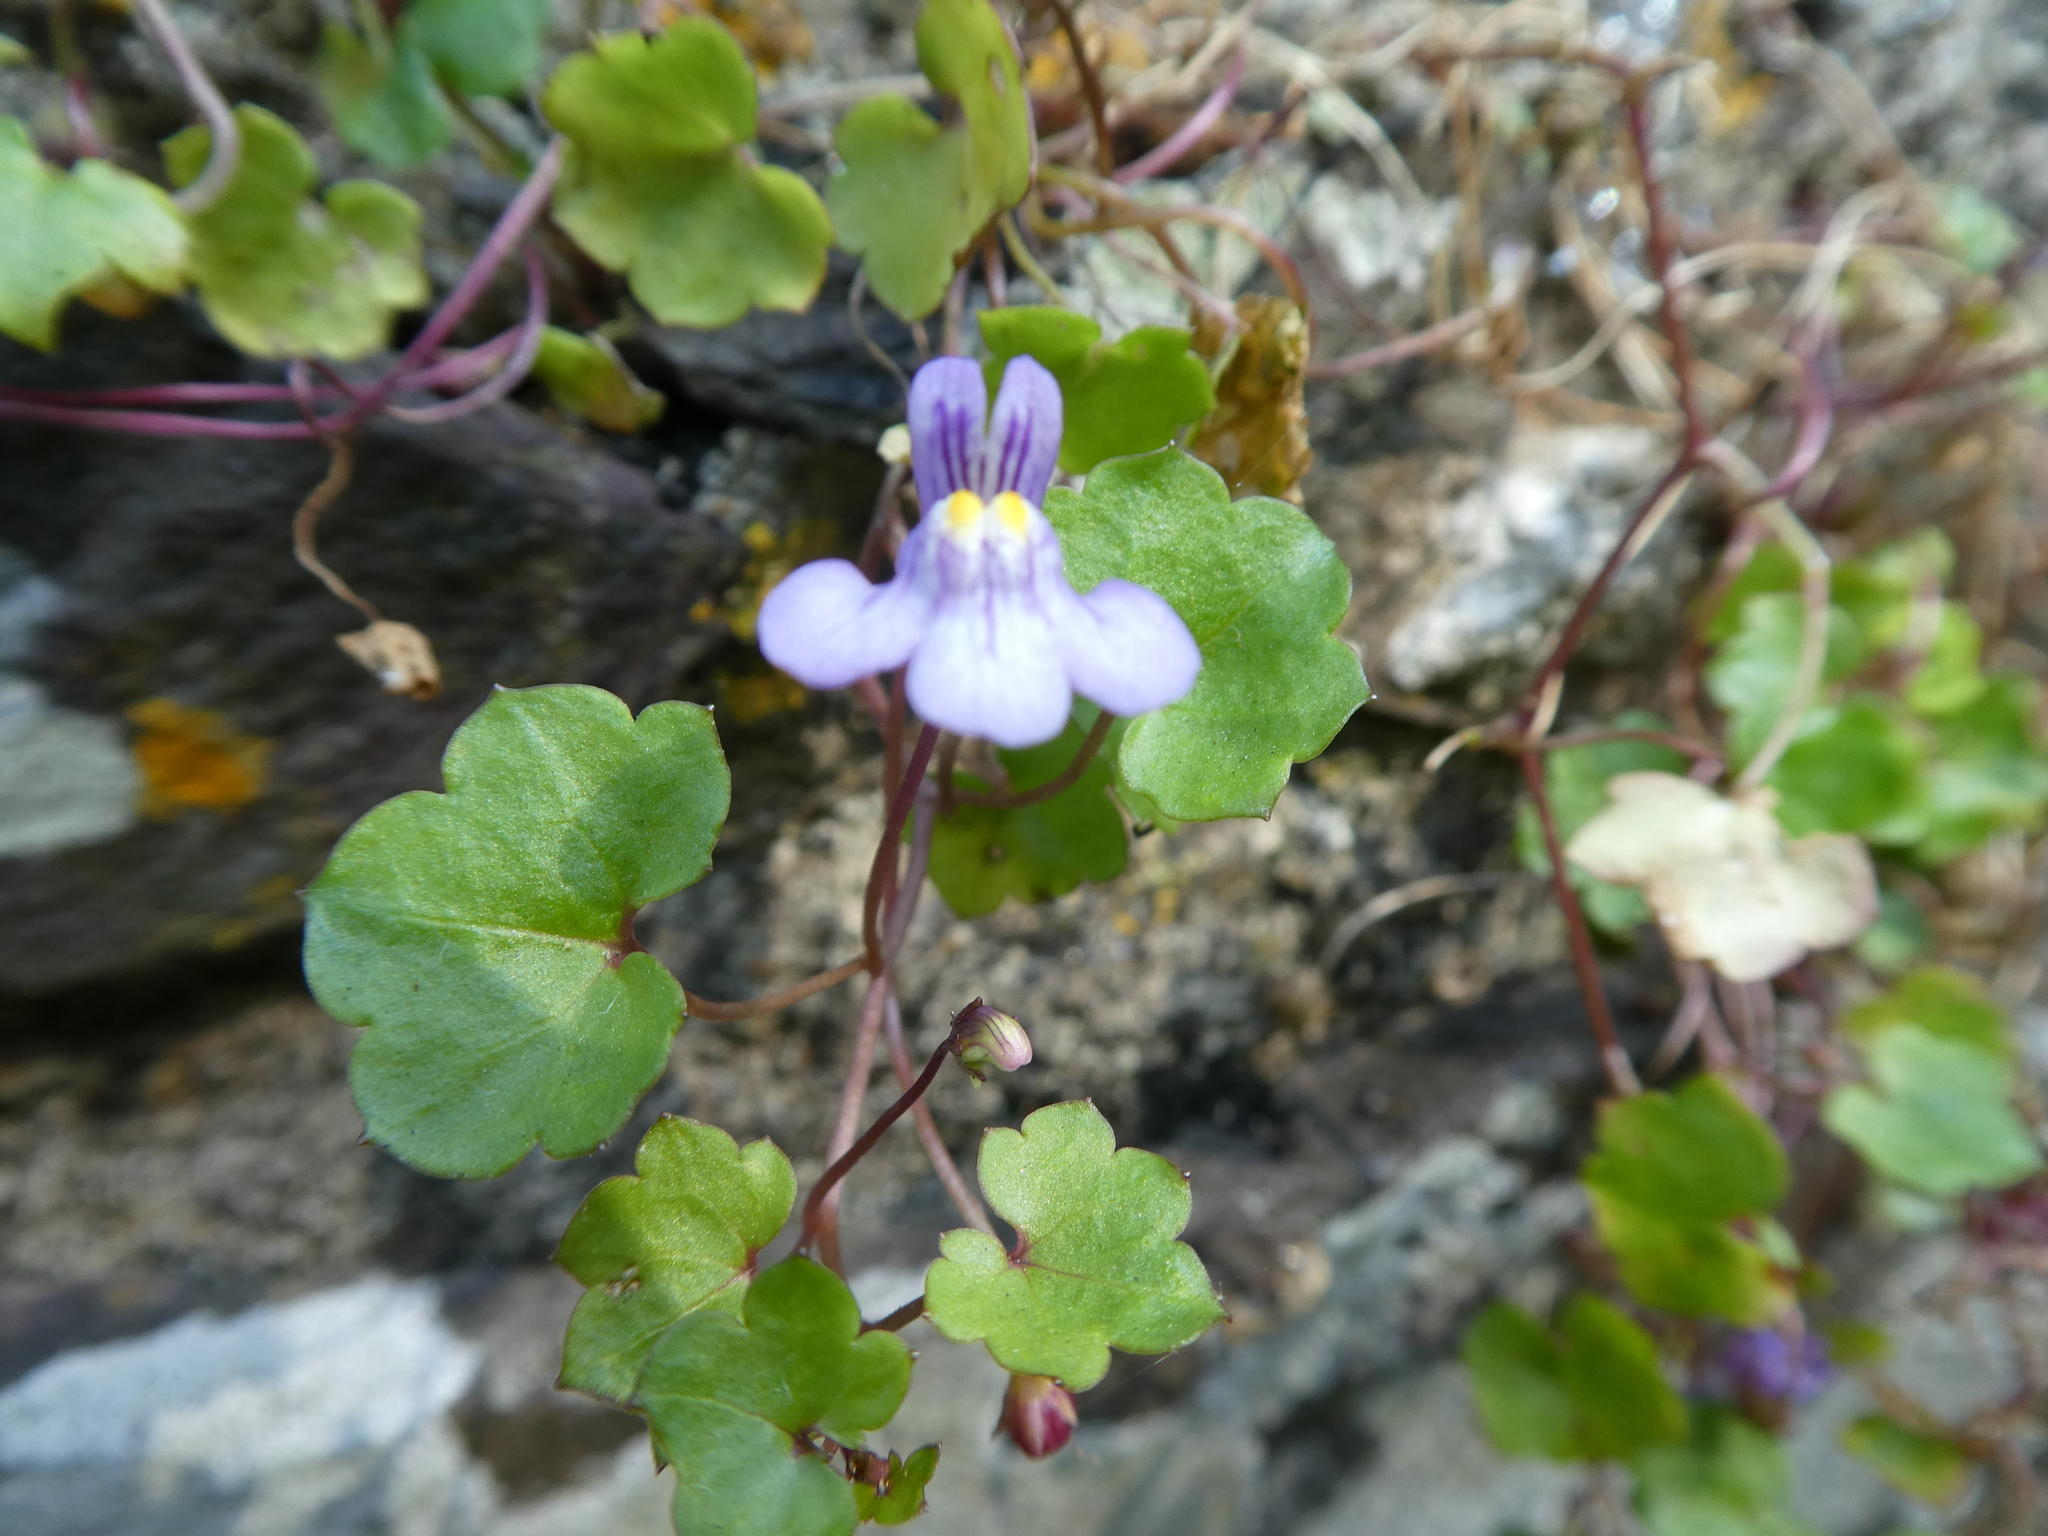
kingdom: Plantae
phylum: Tracheophyta
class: Magnoliopsida
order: Lamiales
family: Plantaginaceae
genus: Cymbalaria
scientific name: Cymbalaria muralis
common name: Ivy-leaved toadflax
